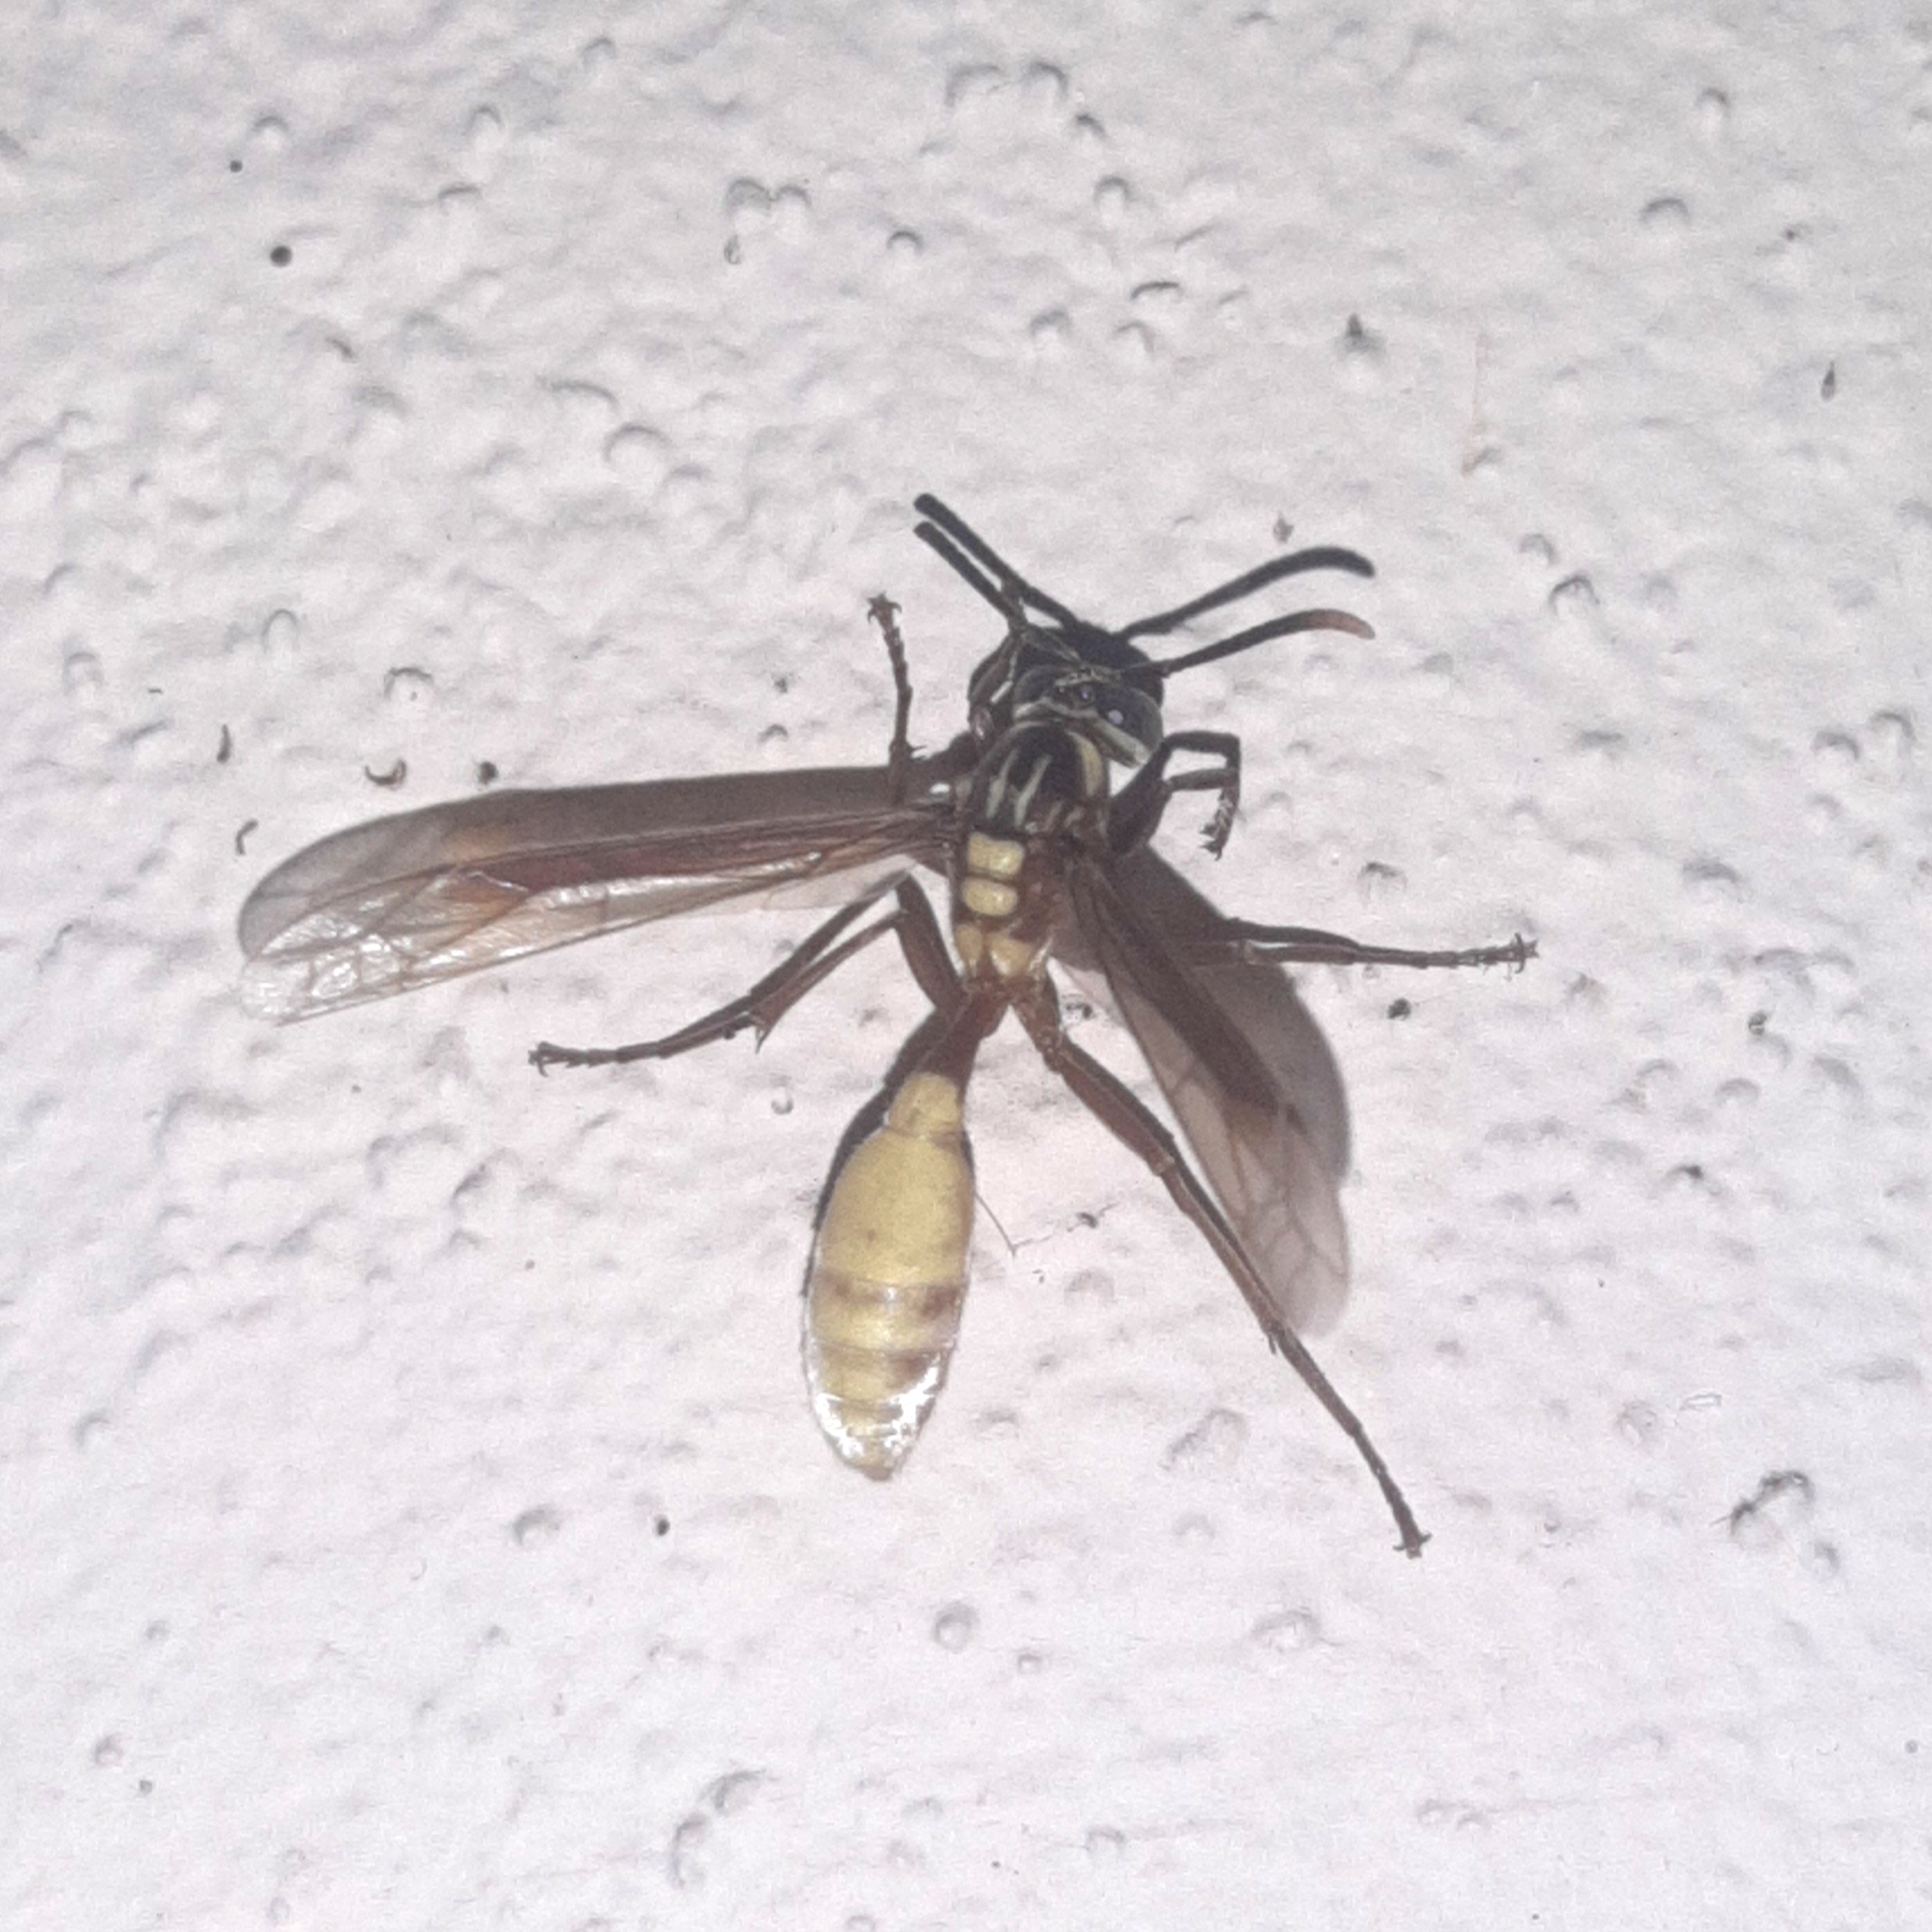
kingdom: Animalia
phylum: Arthropoda
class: Insecta
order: Hymenoptera
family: Vespidae
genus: Apoica
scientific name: Apoica pallens
